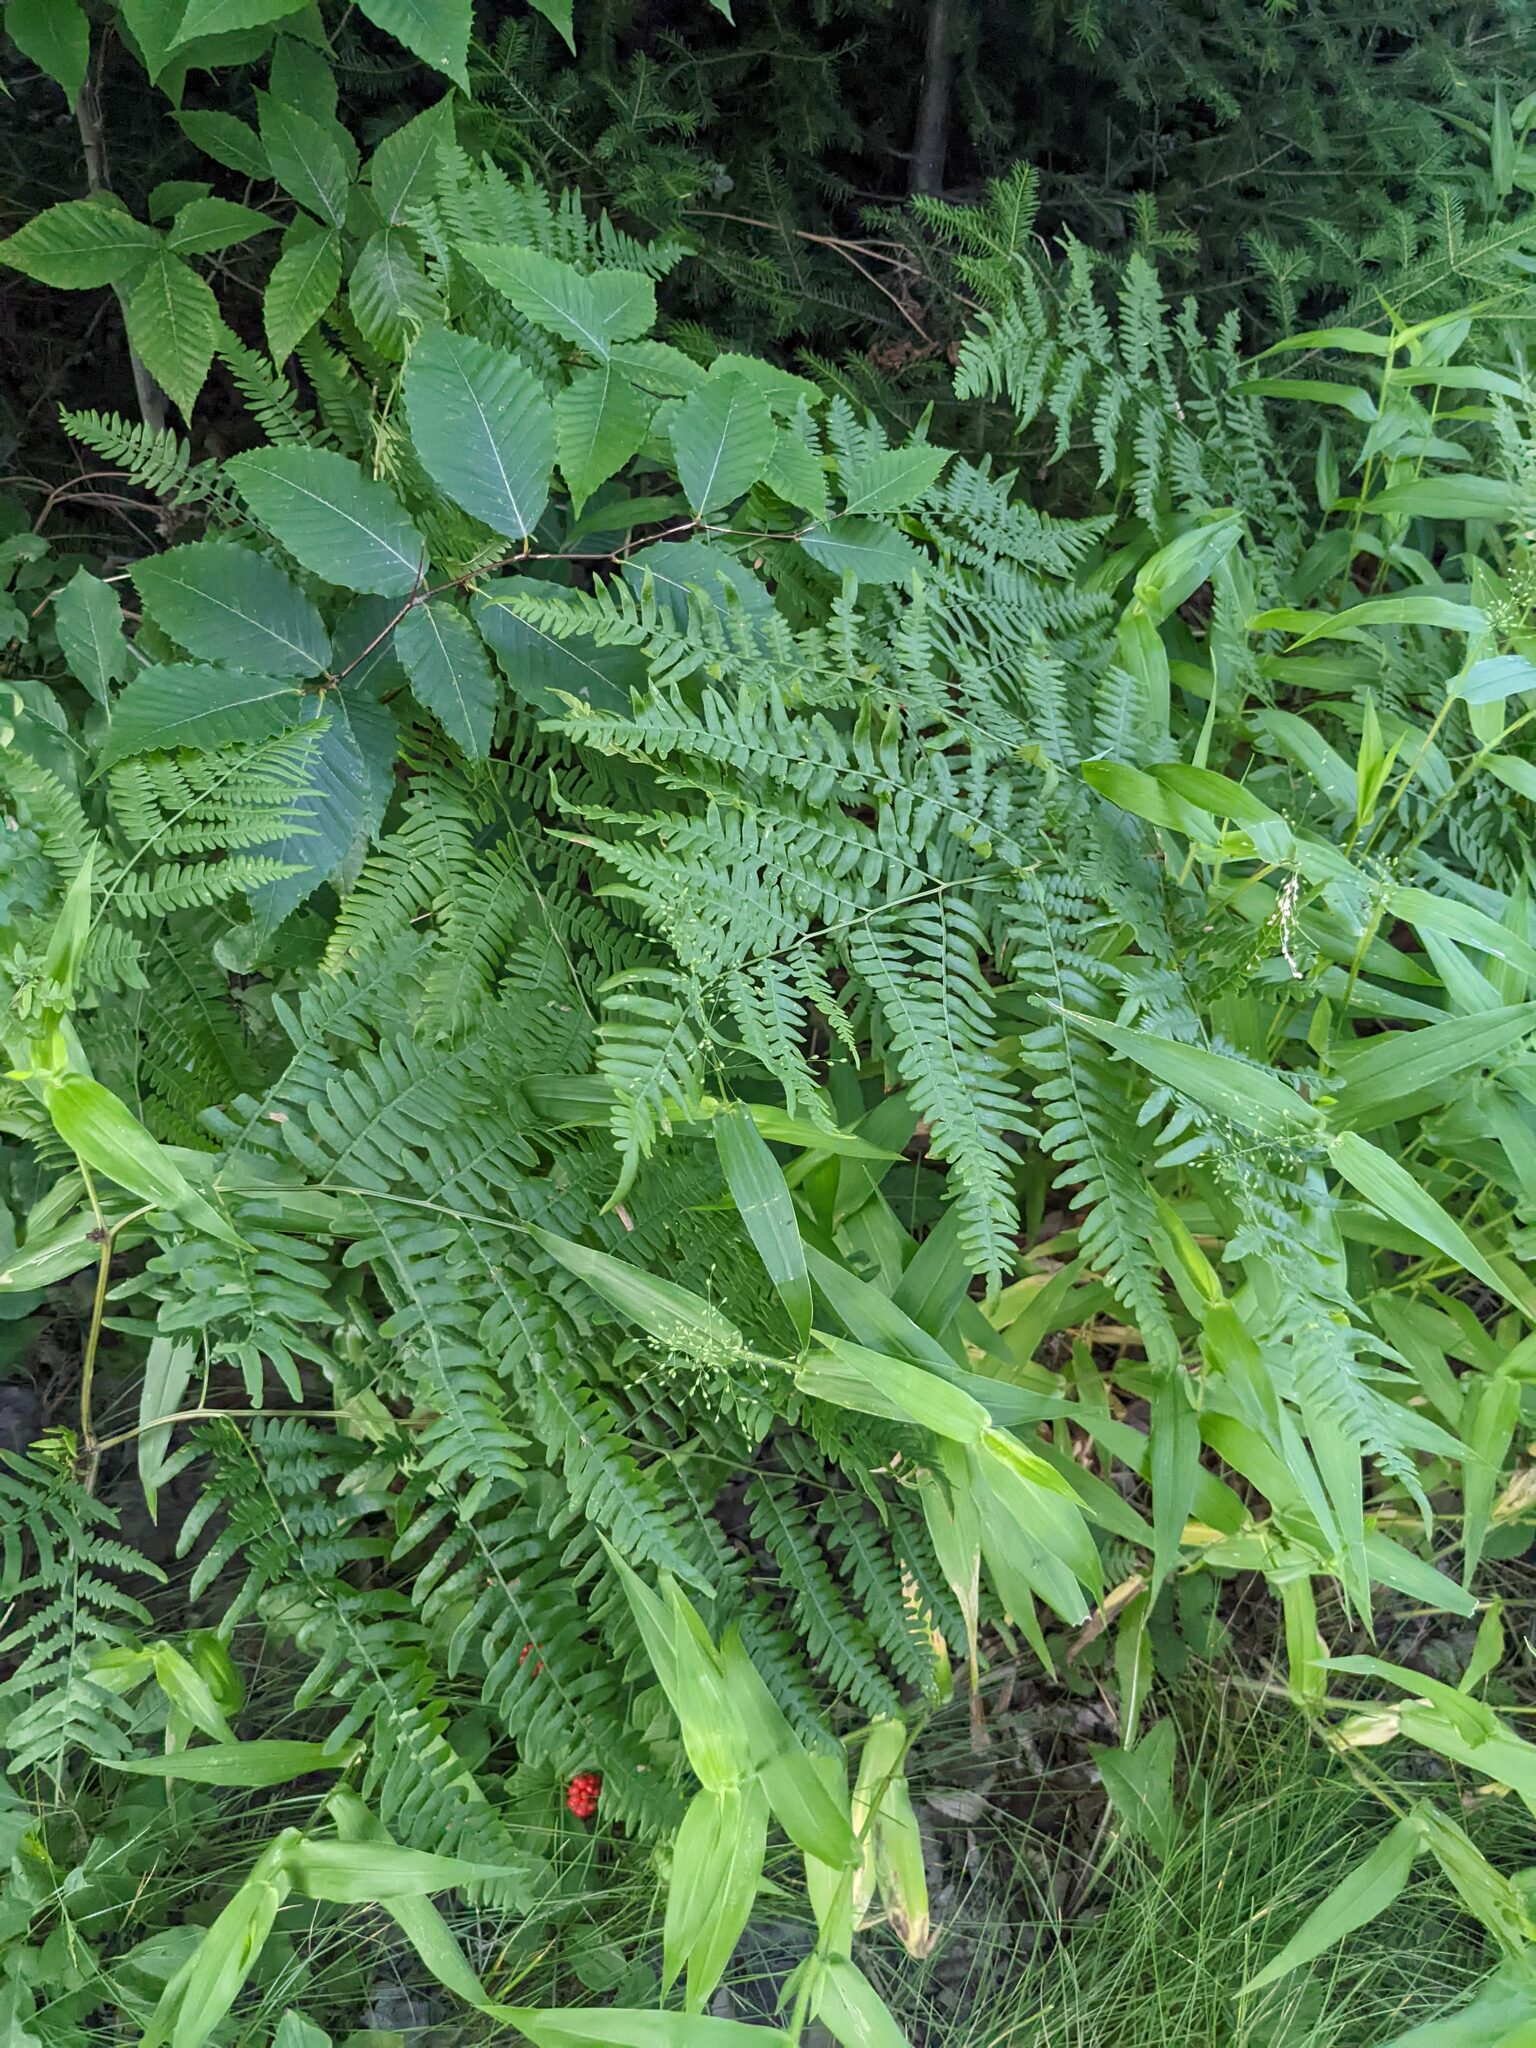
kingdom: Plantae
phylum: Tracheophyta
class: Magnoliopsida
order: Fagales
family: Fagaceae
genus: Fagus
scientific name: Fagus grandifolia
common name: American beech
